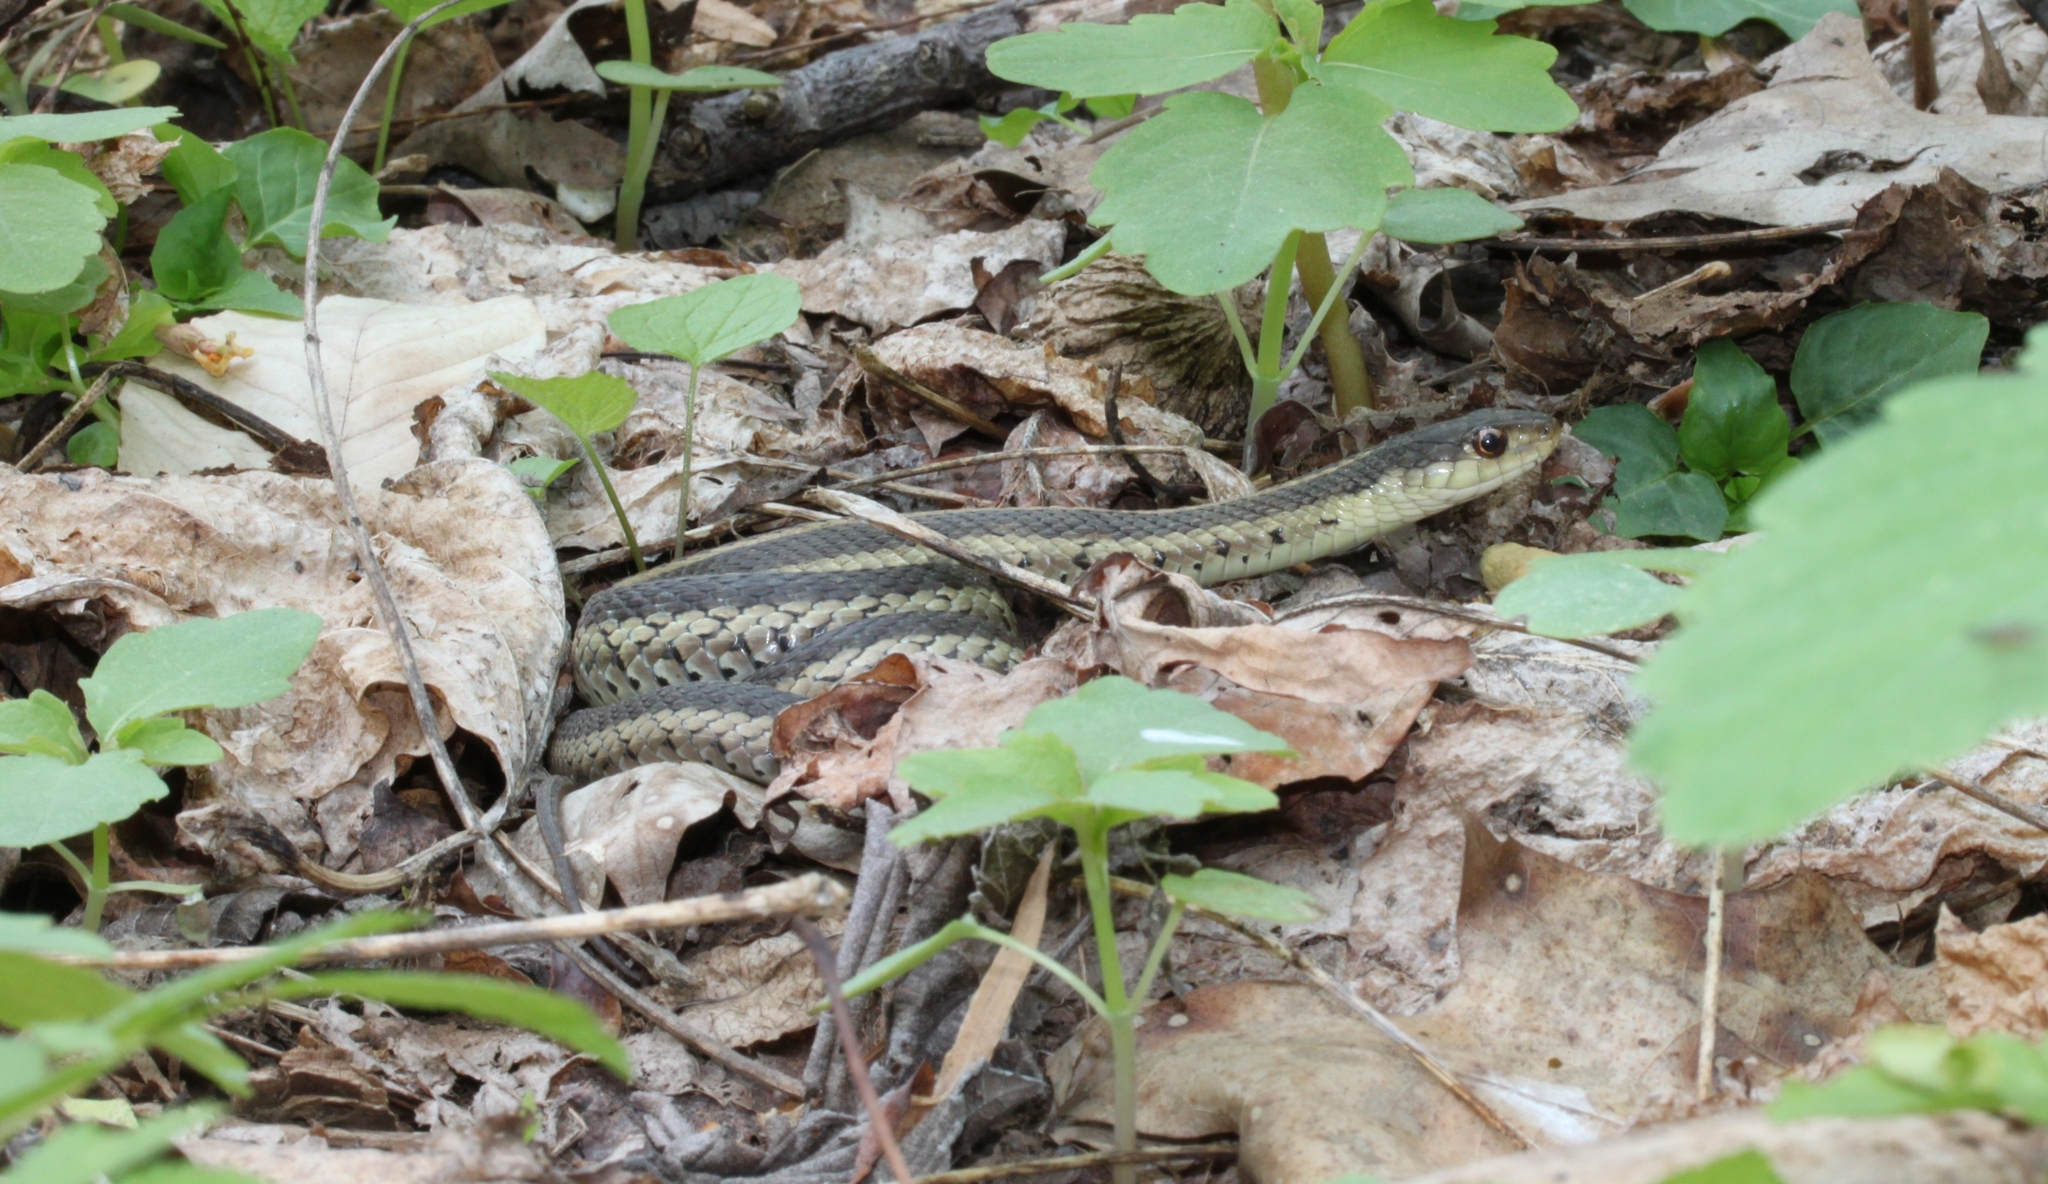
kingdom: Animalia
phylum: Chordata
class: Squamata
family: Colubridae
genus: Thamnophis
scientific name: Thamnophis sirtalis
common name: Common garter snake
